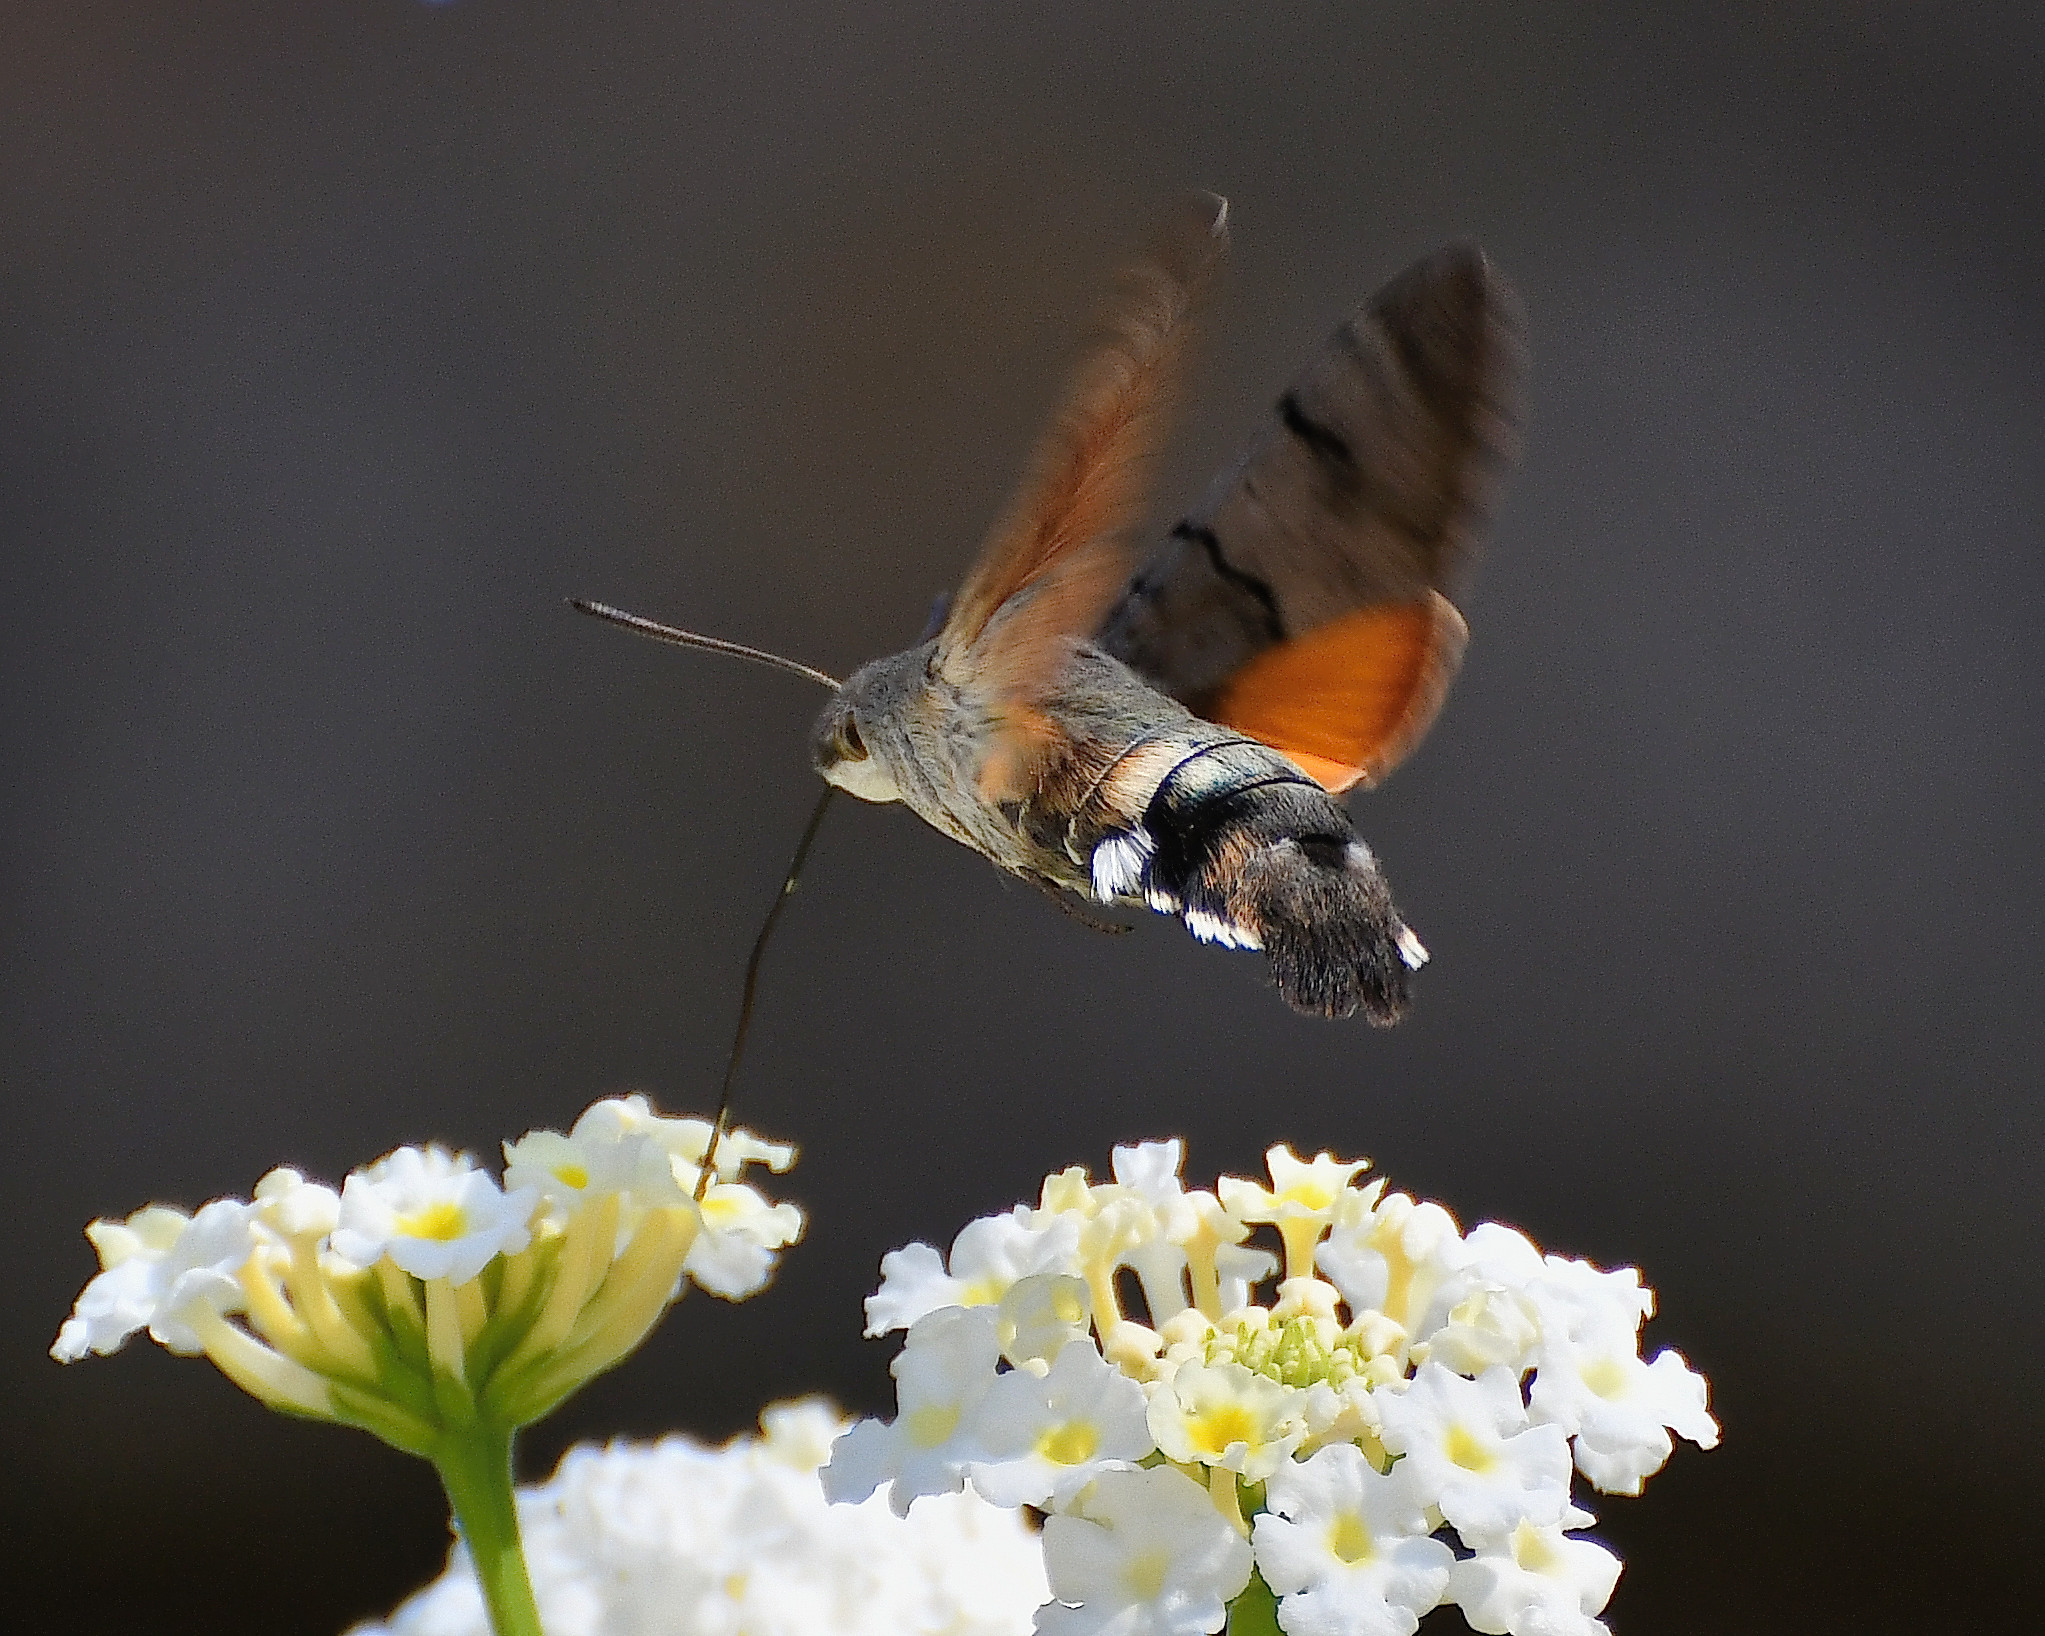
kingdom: Animalia
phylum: Arthropoda
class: Insecta
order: Lepidoptera
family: Sphingidae
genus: Macroglossum
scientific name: Macroglossum stellatarum
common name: Humming-bird hawk-moth
